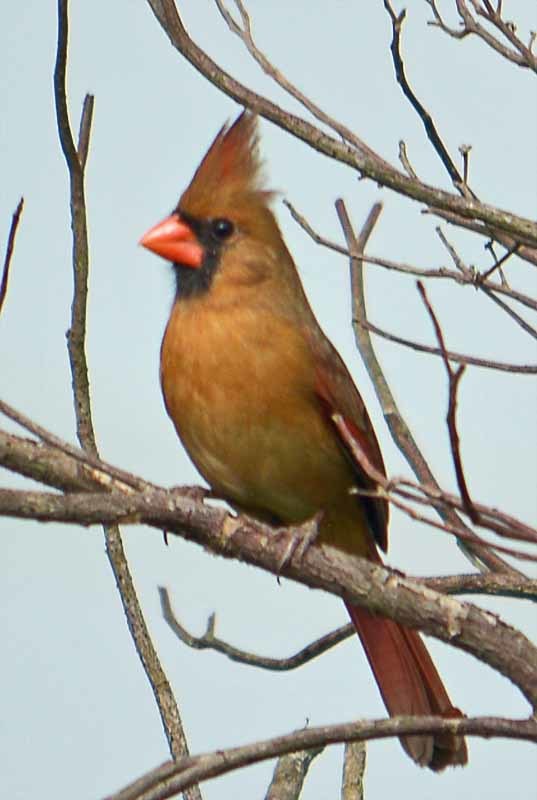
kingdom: Animalia
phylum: Chordata
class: Aves
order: Passeriformes
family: Cardinalidae
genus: Cardinalis
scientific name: Cardinalis cardinalis
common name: Northern cardinal
